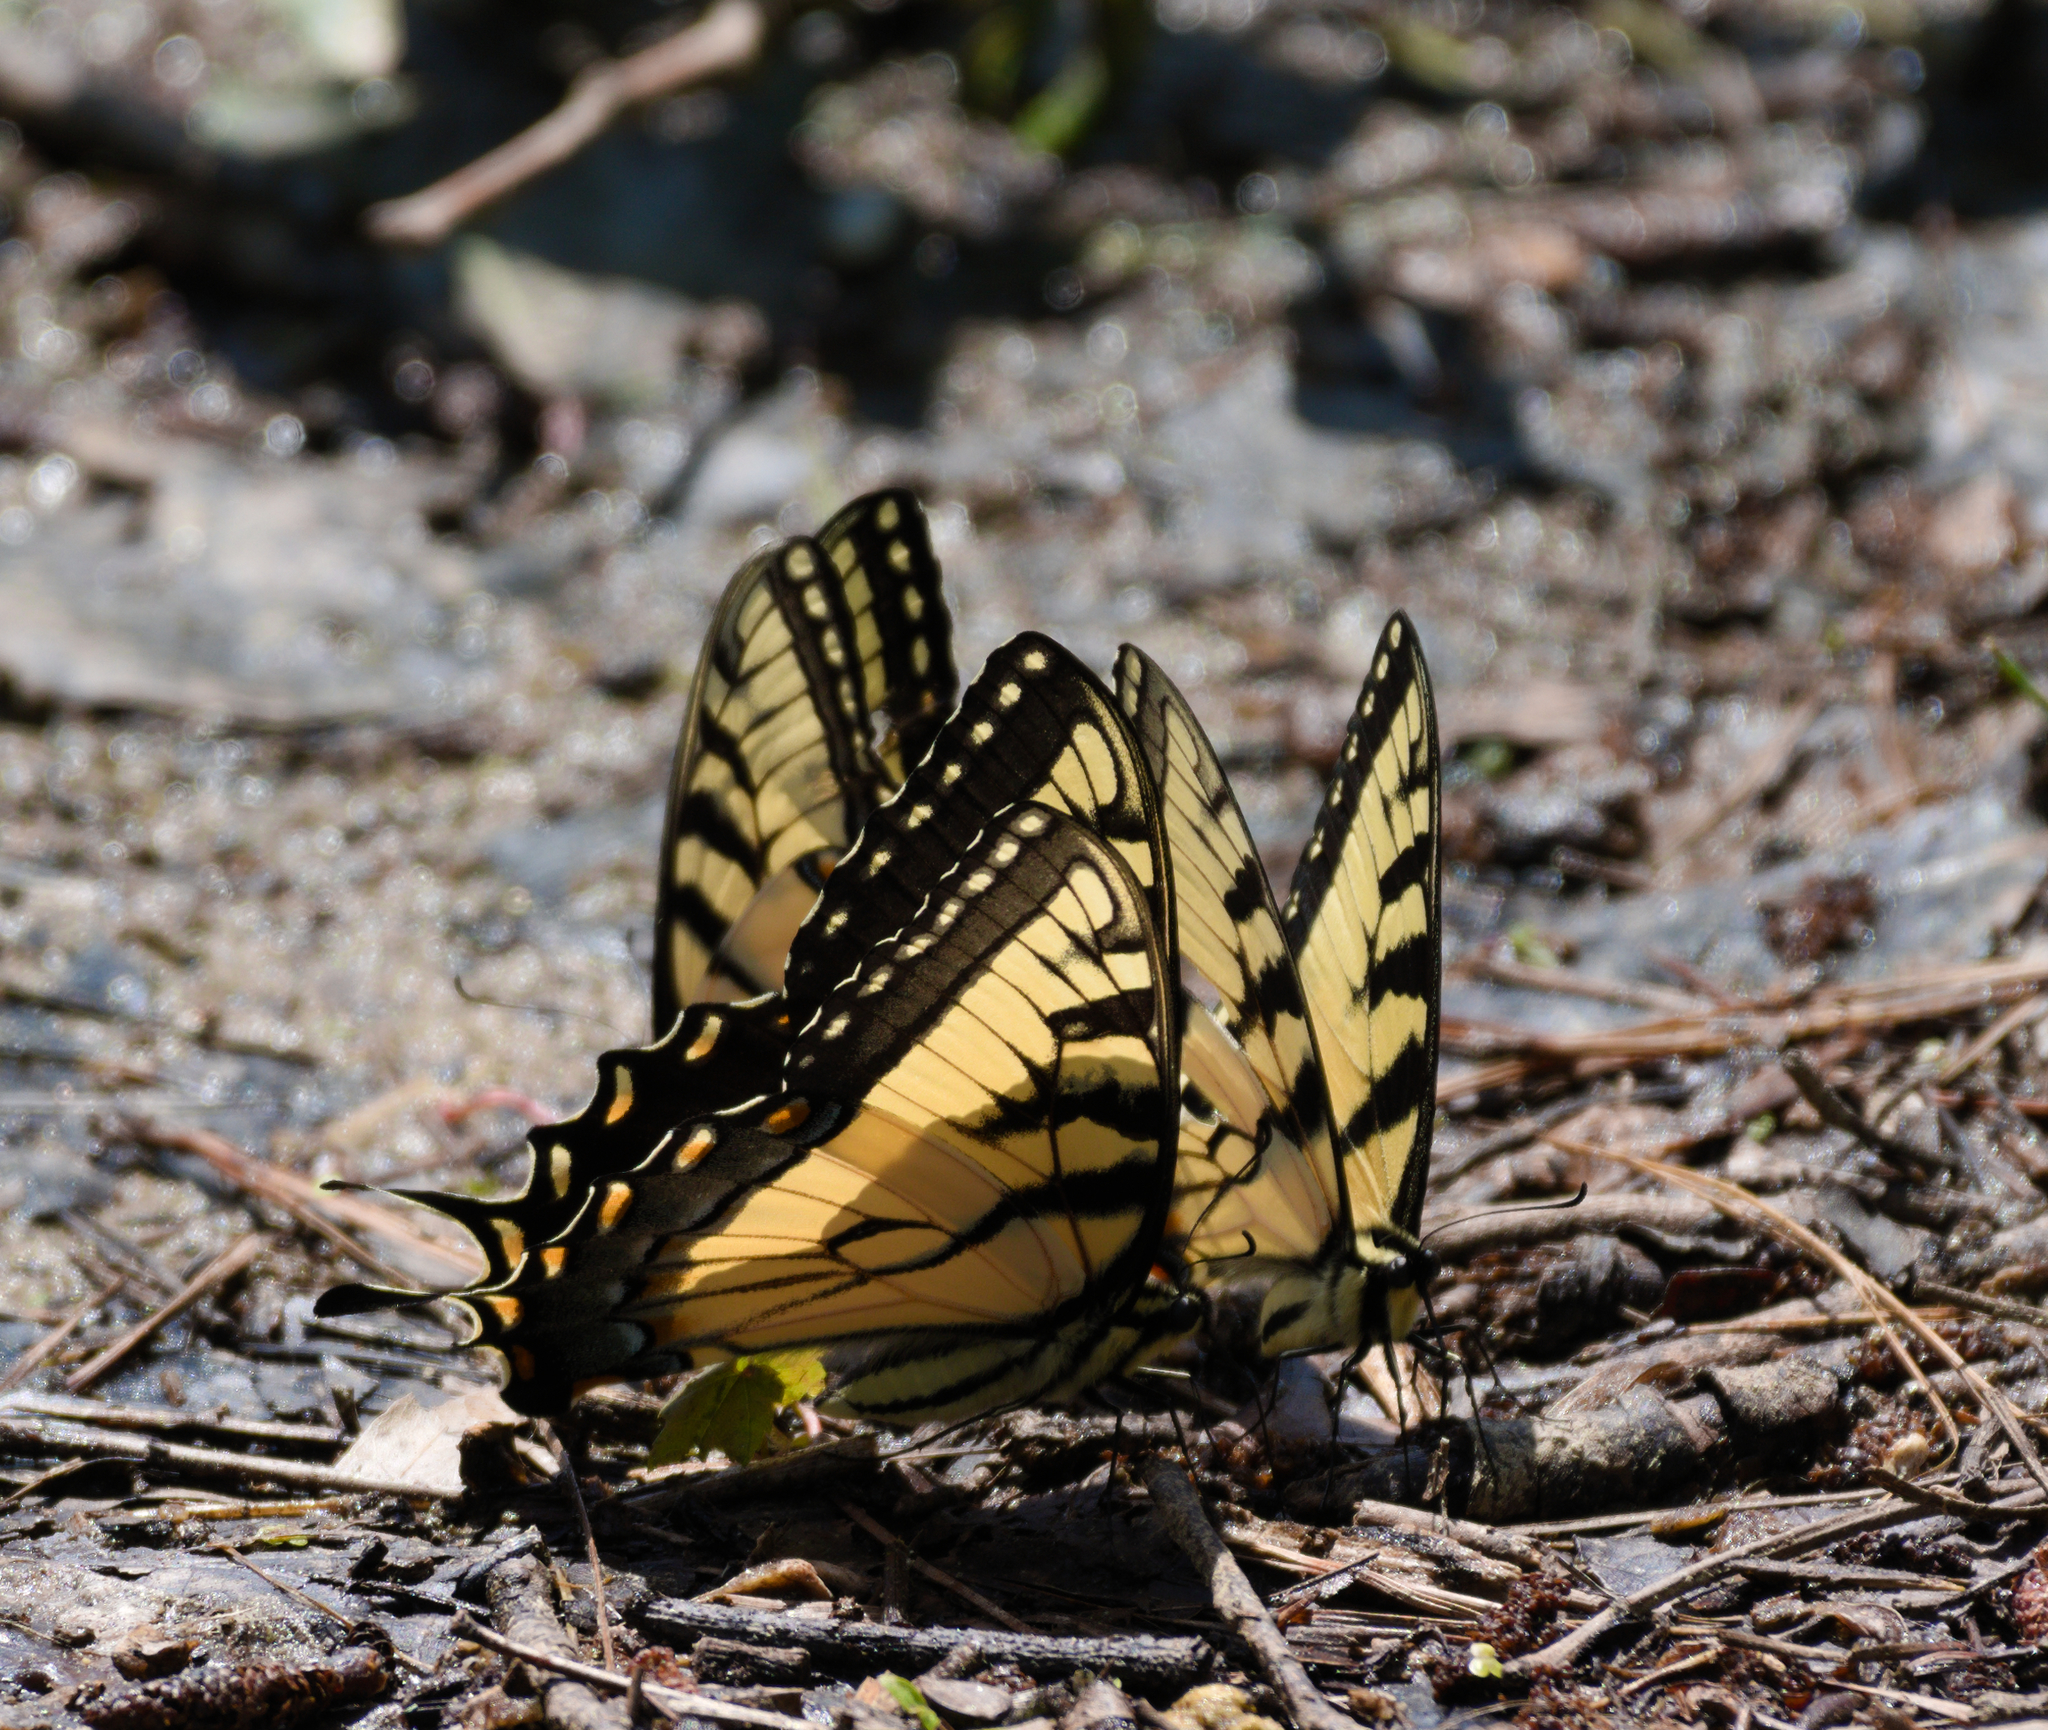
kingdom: Animalia
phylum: Arthropoda
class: Insecta
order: Lepidoptera
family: Papilionidae
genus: Papilio
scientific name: Papilio glaucus
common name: Tiger swallowtail
